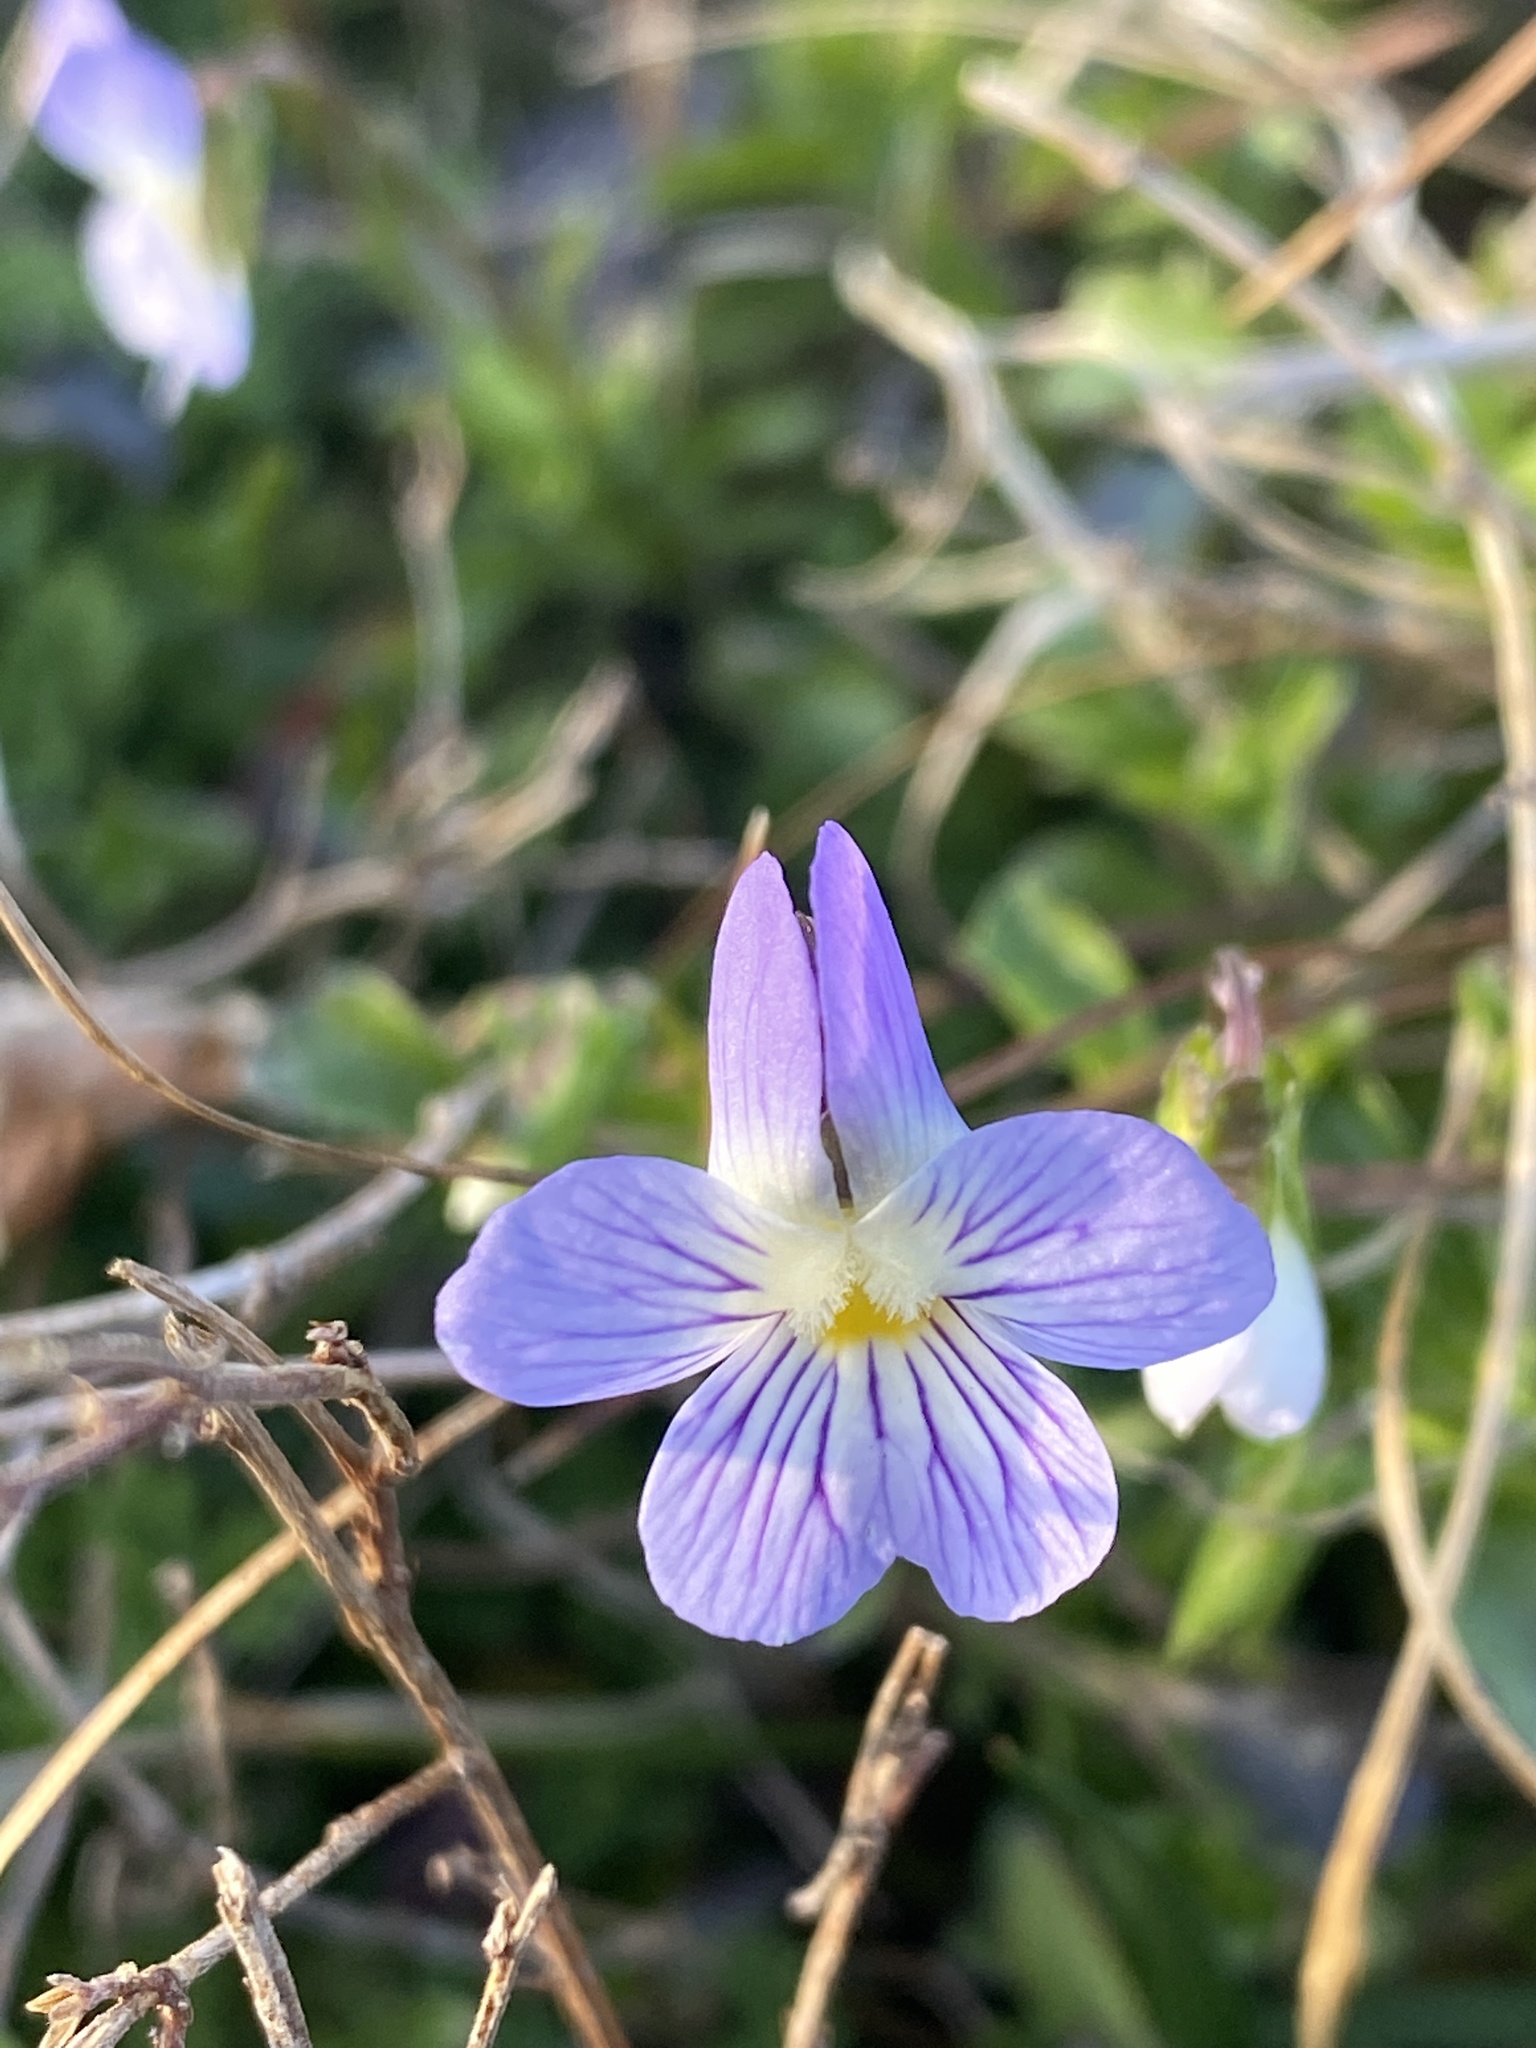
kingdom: Plantae
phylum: Tracheophyta
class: Magnoliopsida
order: Malpighiales
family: Violaceae
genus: Viola
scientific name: Viola rafinesquei
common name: American field pansy
